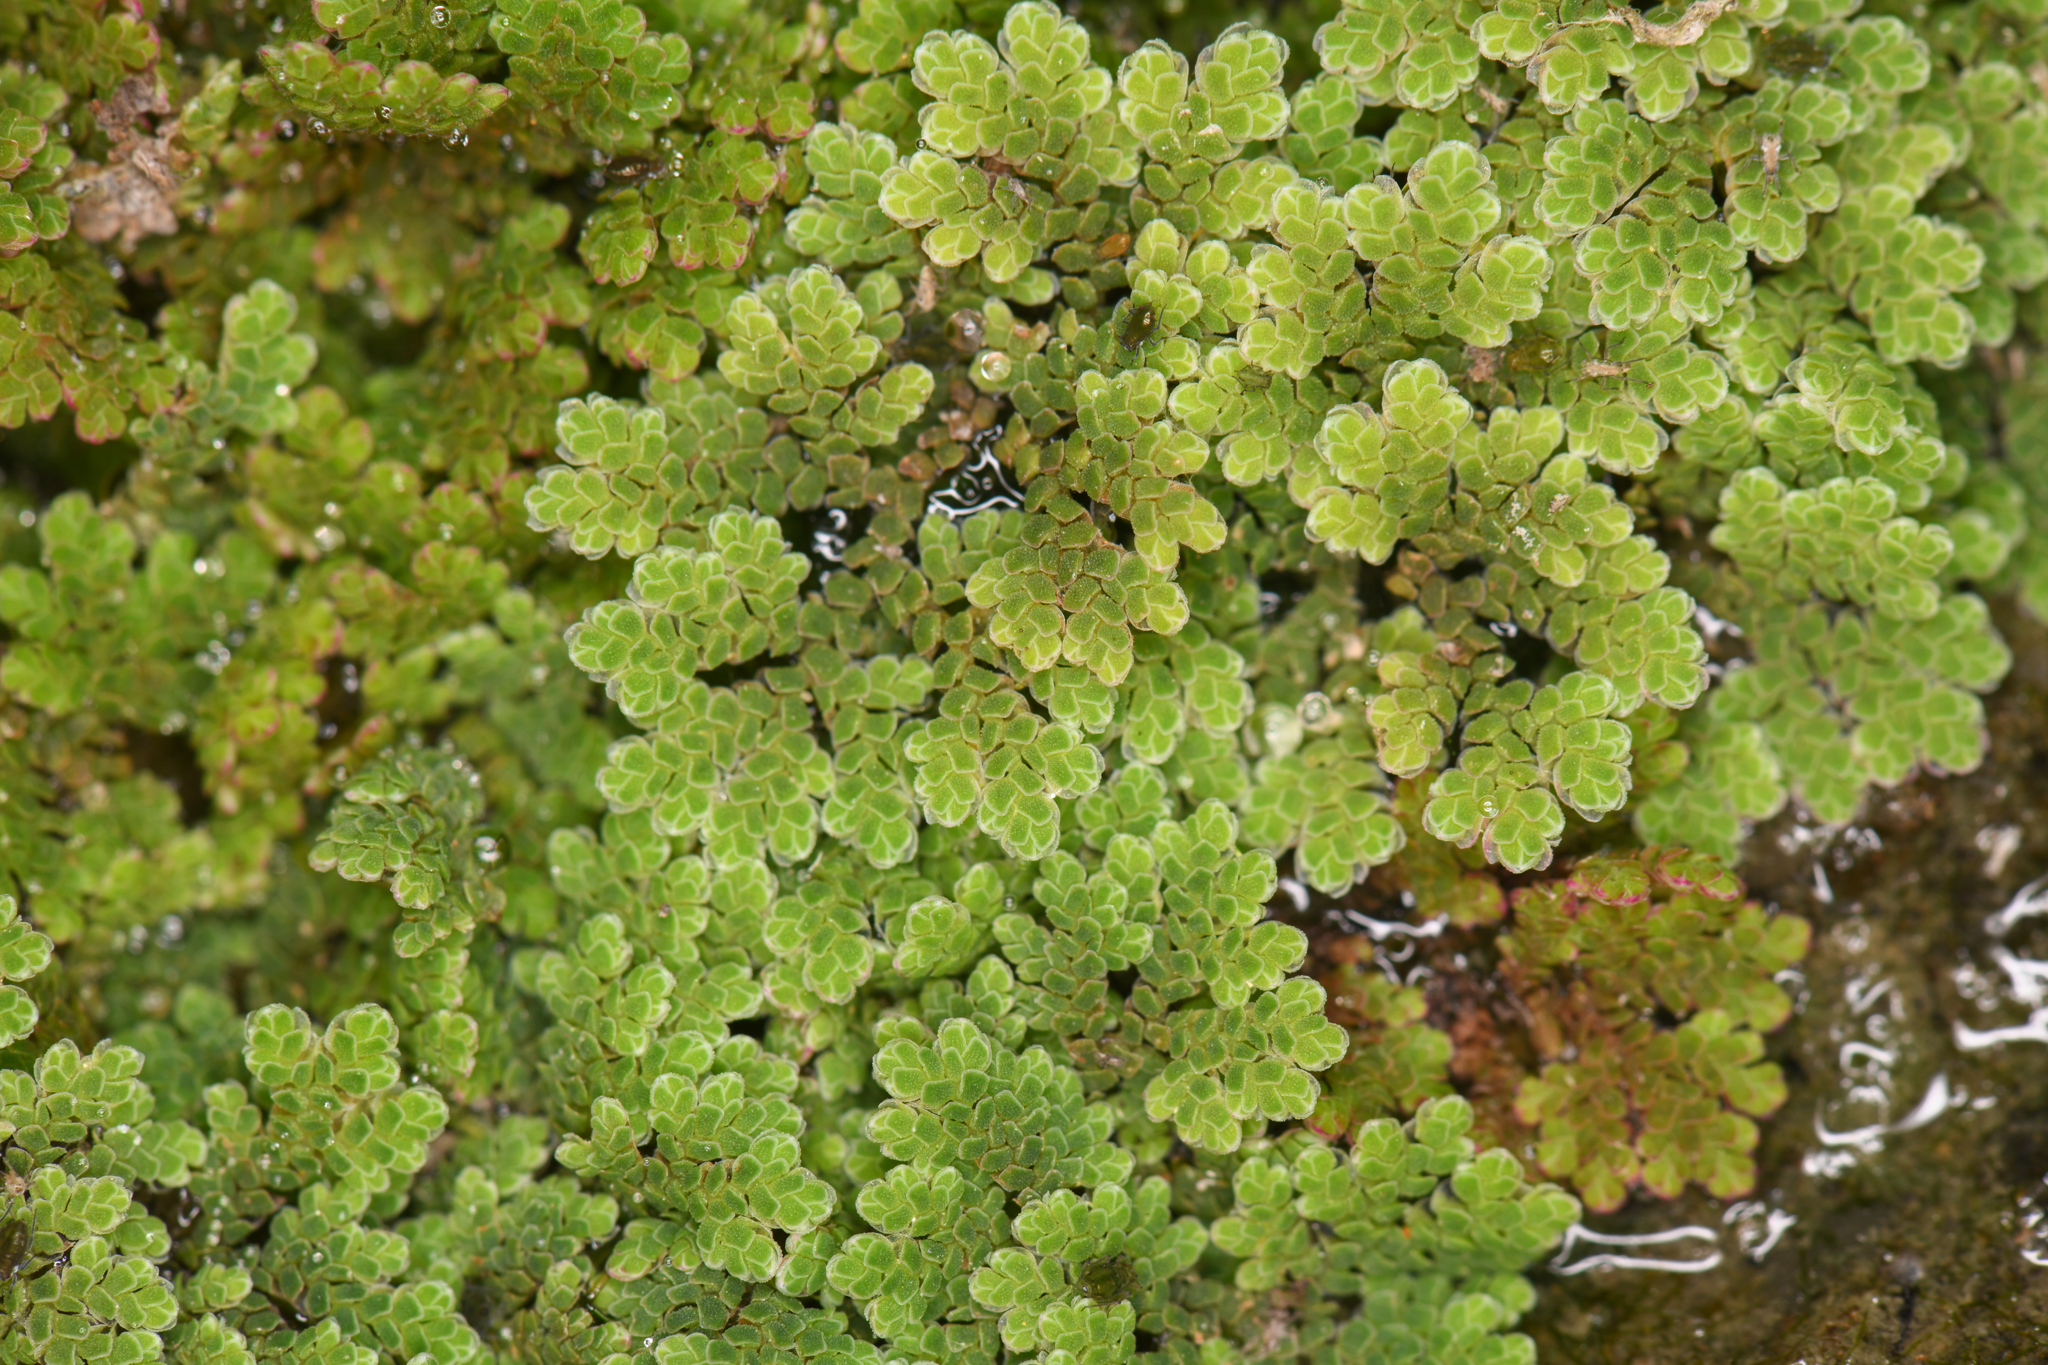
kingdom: Plantae
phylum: Tracheophyta
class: Polypodiopsida
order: Salviniales
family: Salviniaceae
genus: Azolla
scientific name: Azolla filiculoides
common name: Water fern
